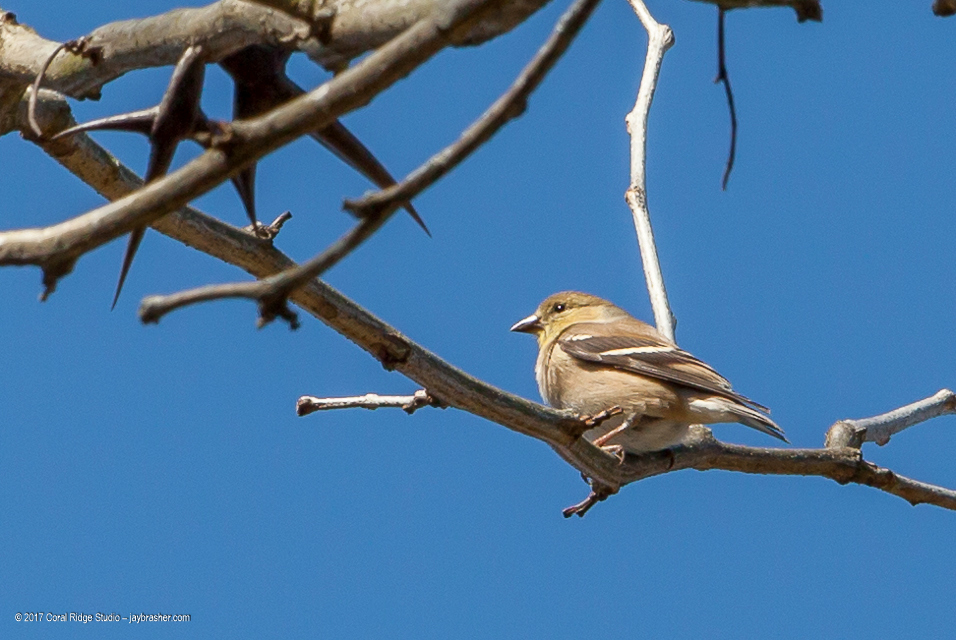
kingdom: Animalia
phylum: Chordata
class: Aves
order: Passeriformes
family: Fringillidae
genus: Spinus
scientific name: Spinus tristis
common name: American goldfinch
